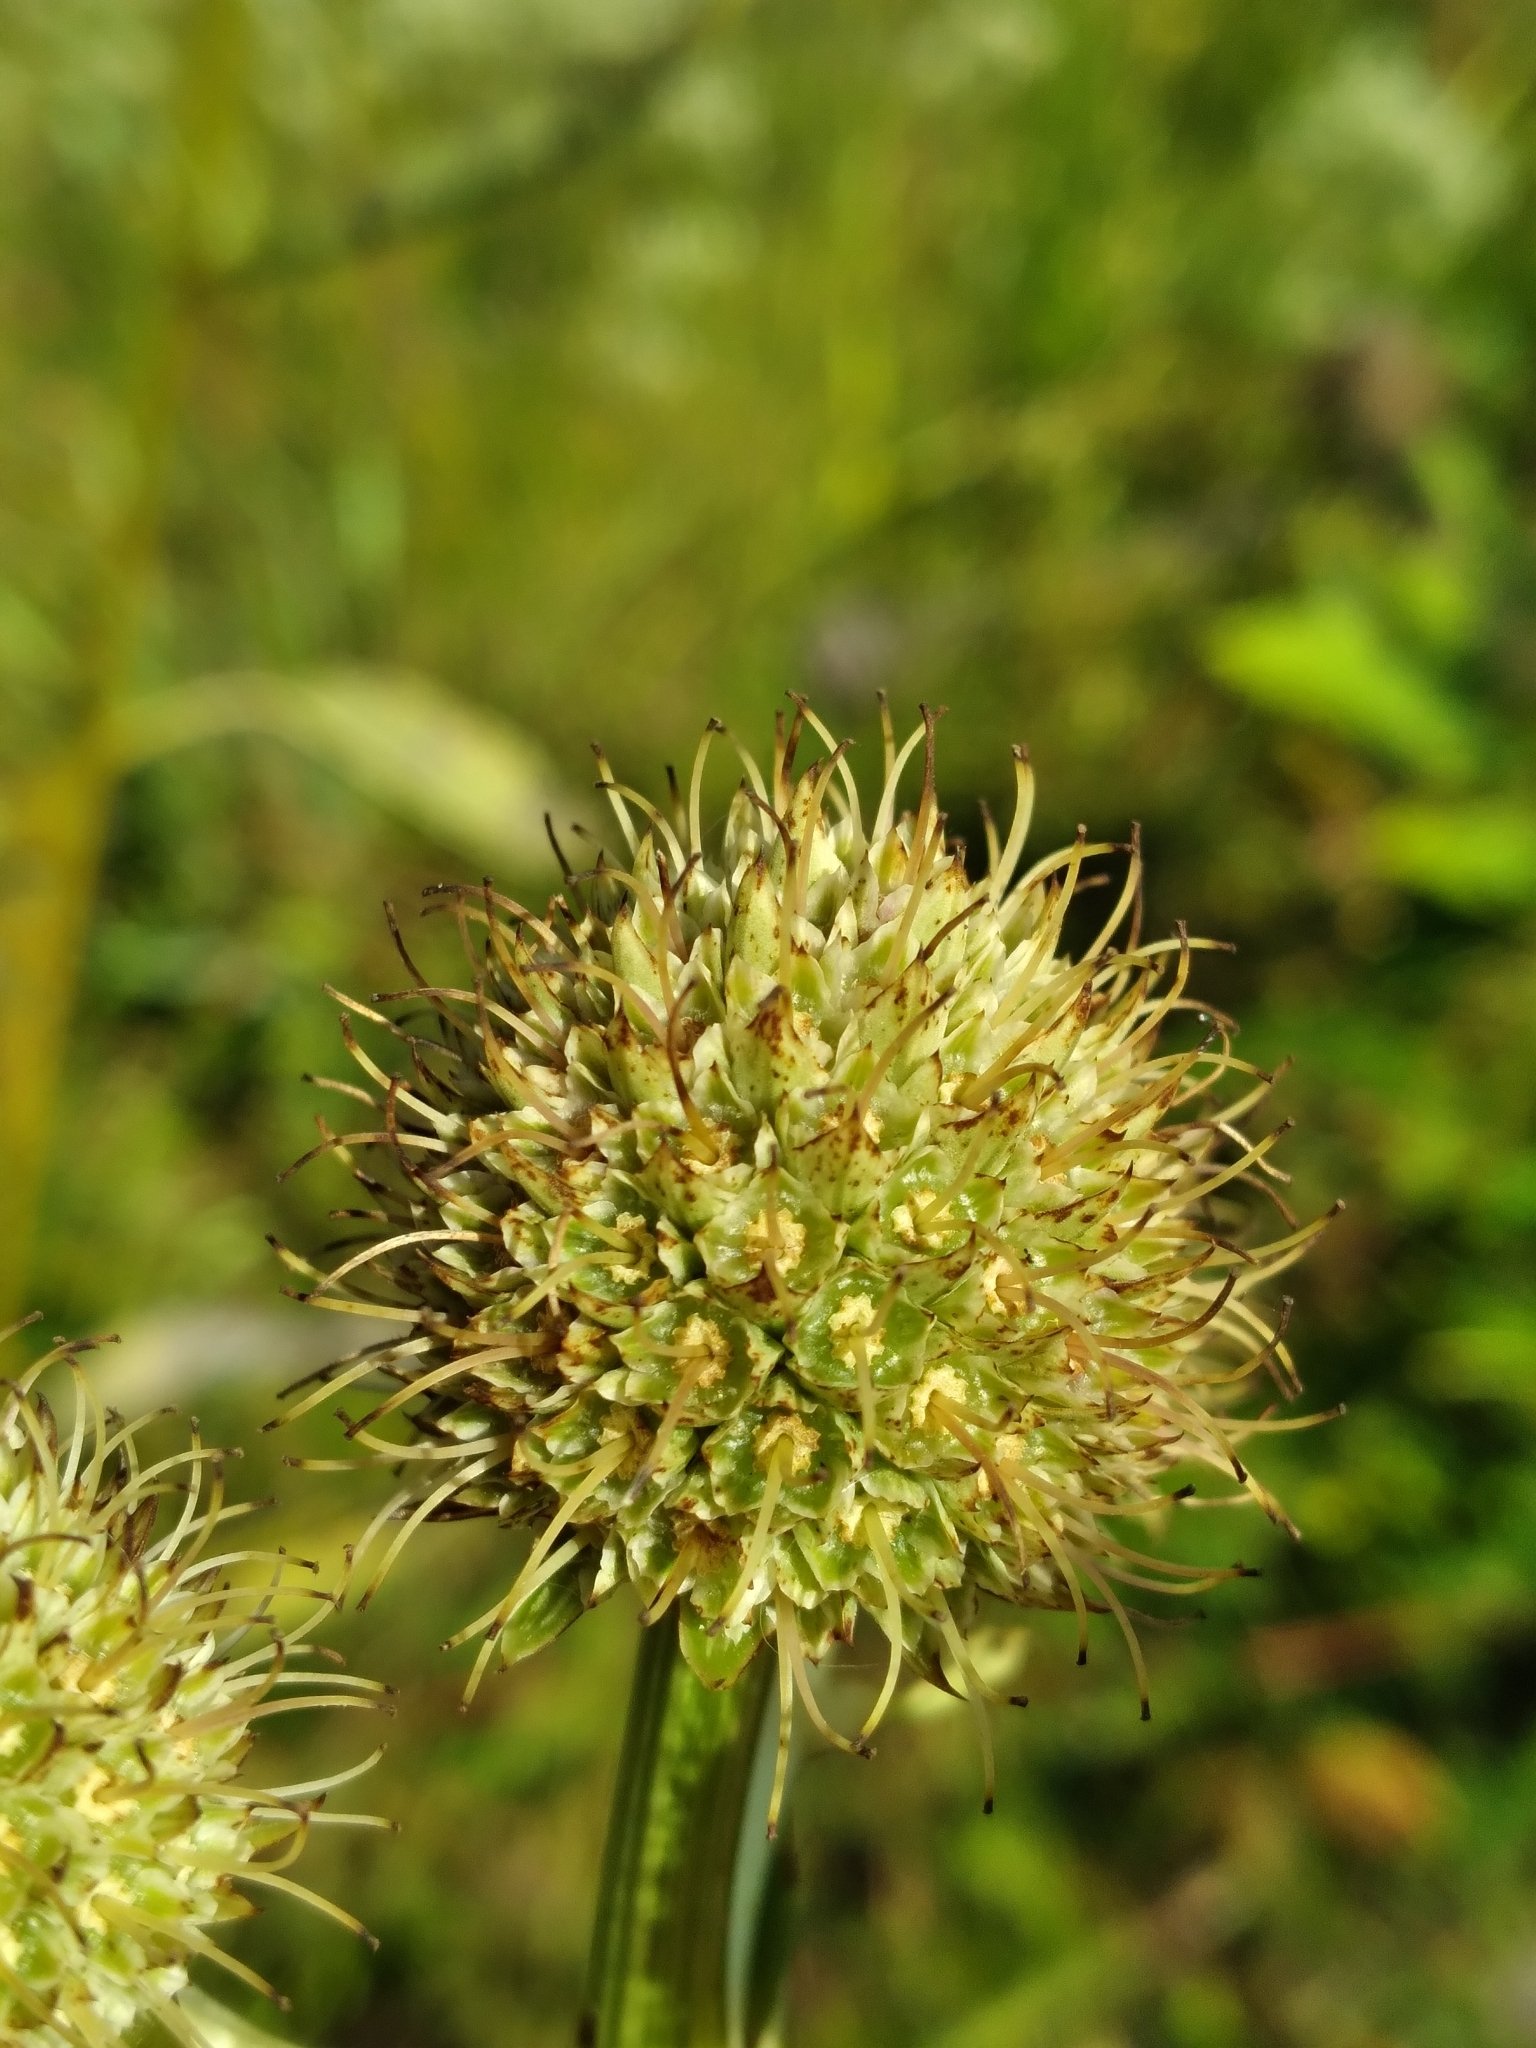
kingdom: Plantae
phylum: Tracheophyta
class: Magnoliopsida
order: Apiales
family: Apiaceae
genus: Eryngium
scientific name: Eryngium yuccifolium
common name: Button eryngo
